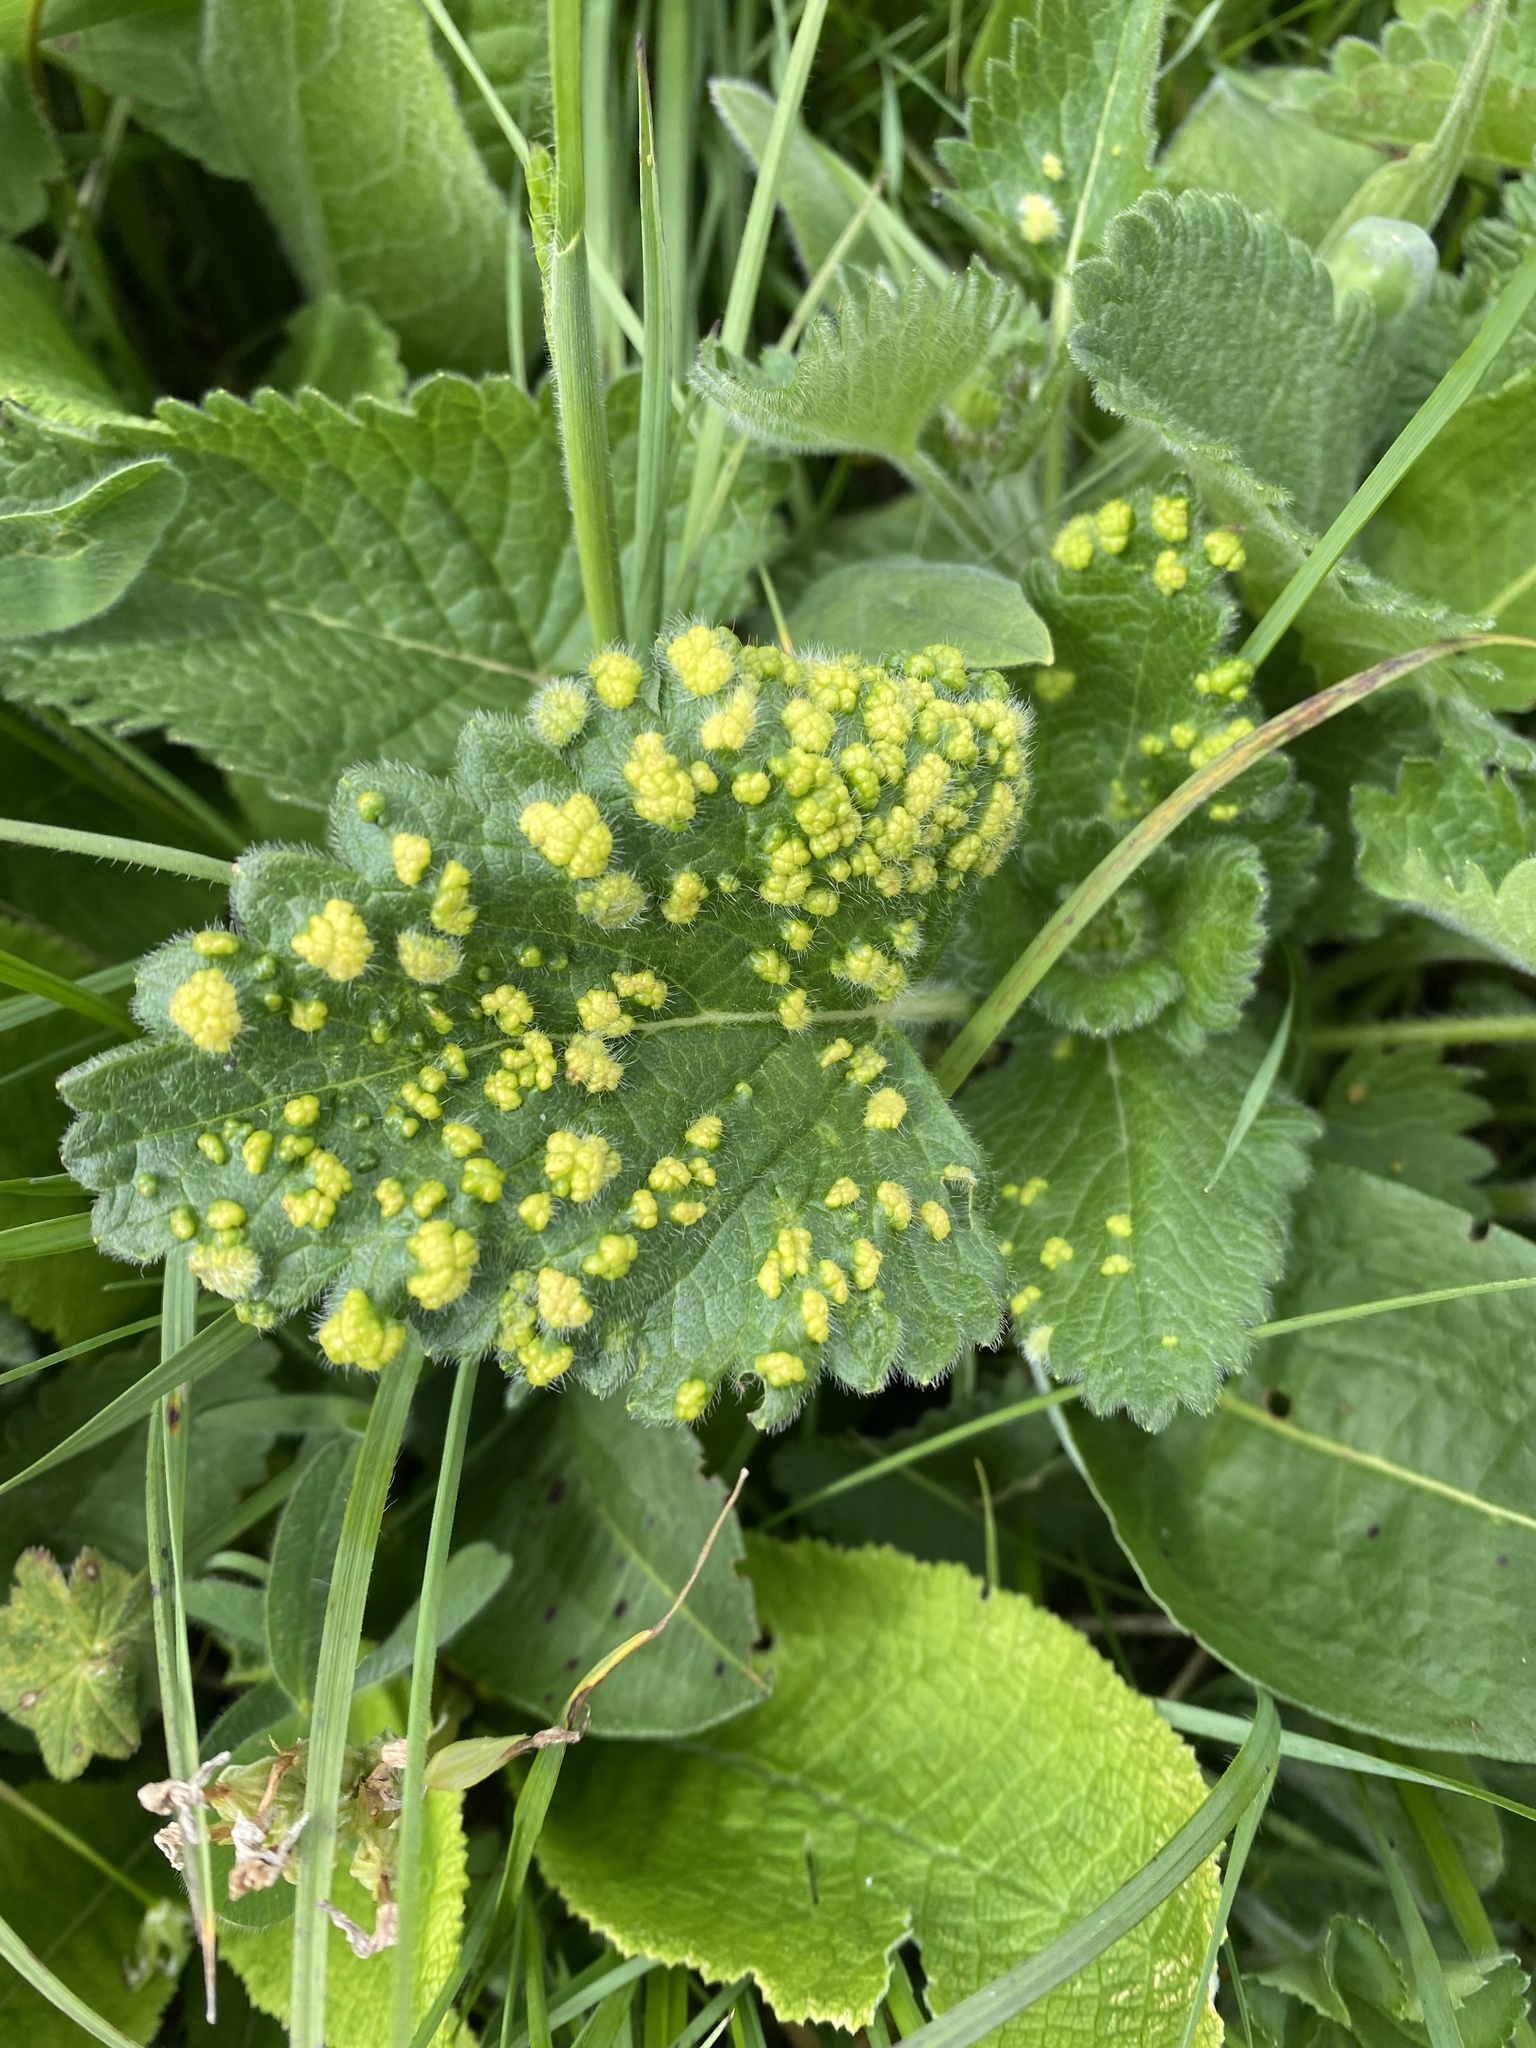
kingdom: Plantae
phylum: Tracheophyta
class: Magnoliopsida
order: Lamiales
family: Lamiaceae
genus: Betonica
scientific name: Betonica macrantha
